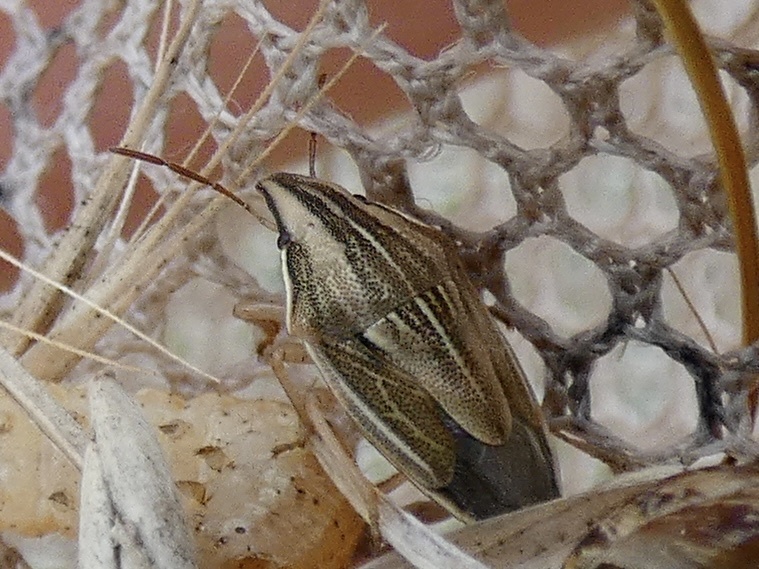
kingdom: Animalia
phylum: Arthropoda
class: Insecta
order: Hemiptera
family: Pentatomidae
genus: Aelia
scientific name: Aelia acuminata
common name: Bishop's mitre
